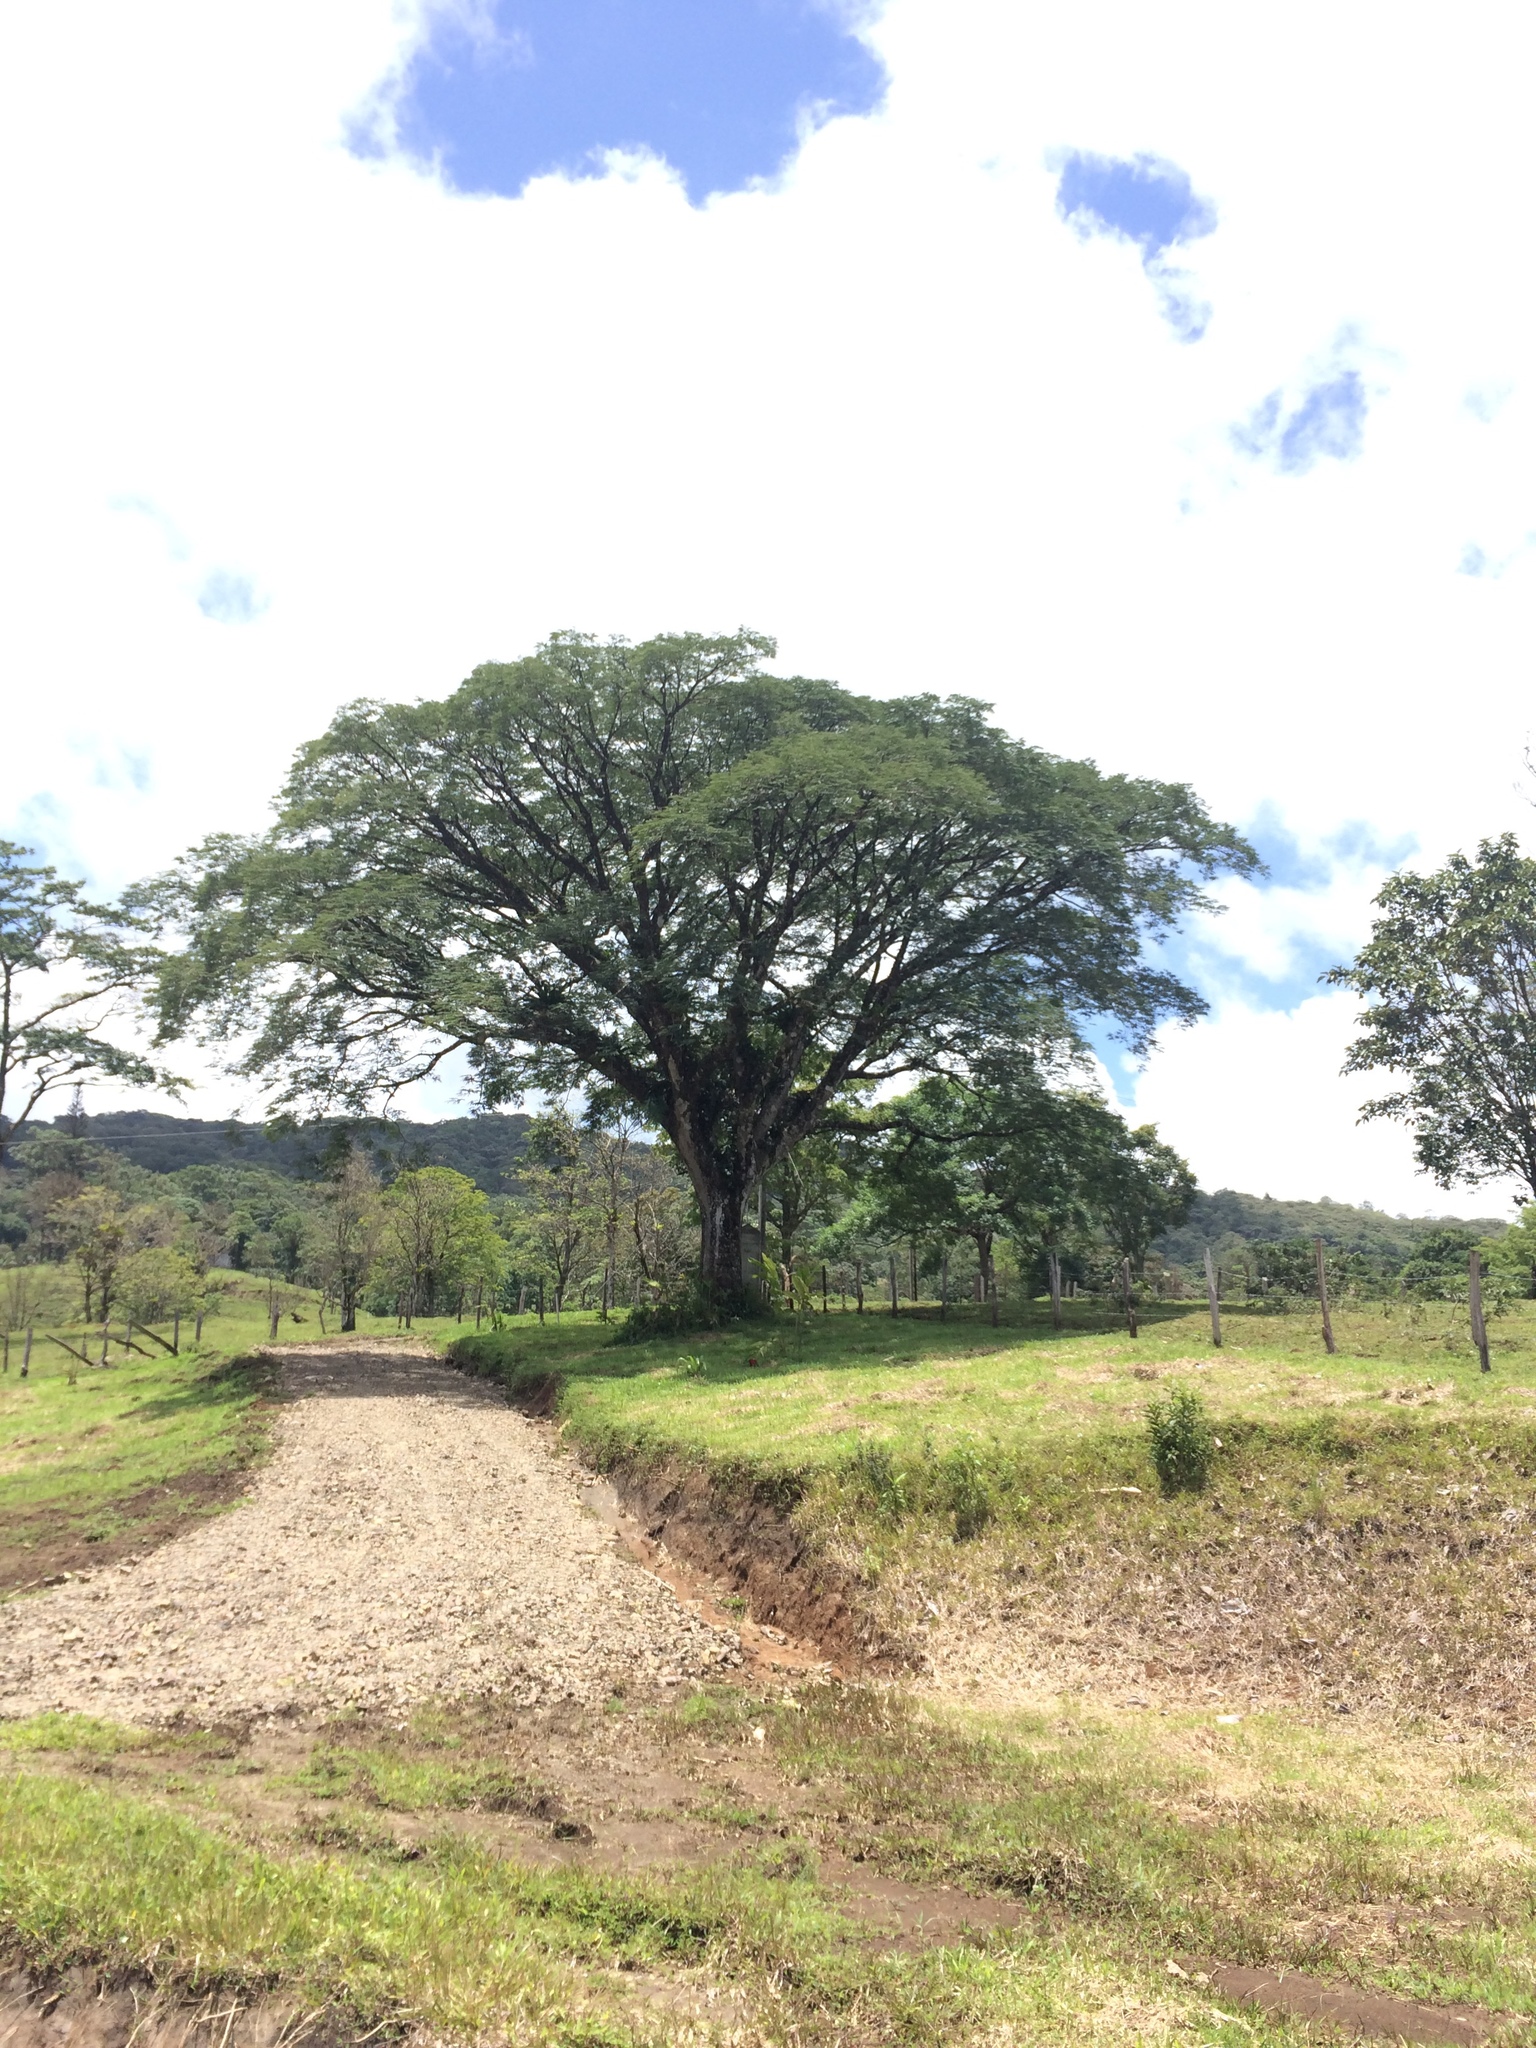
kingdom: Plantae
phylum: Tracheophyta
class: Magnoliopsida
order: Fabales
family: Fabaceae
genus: Enterolobium
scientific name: Enterolobium cyclocarpum
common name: Ear tree
